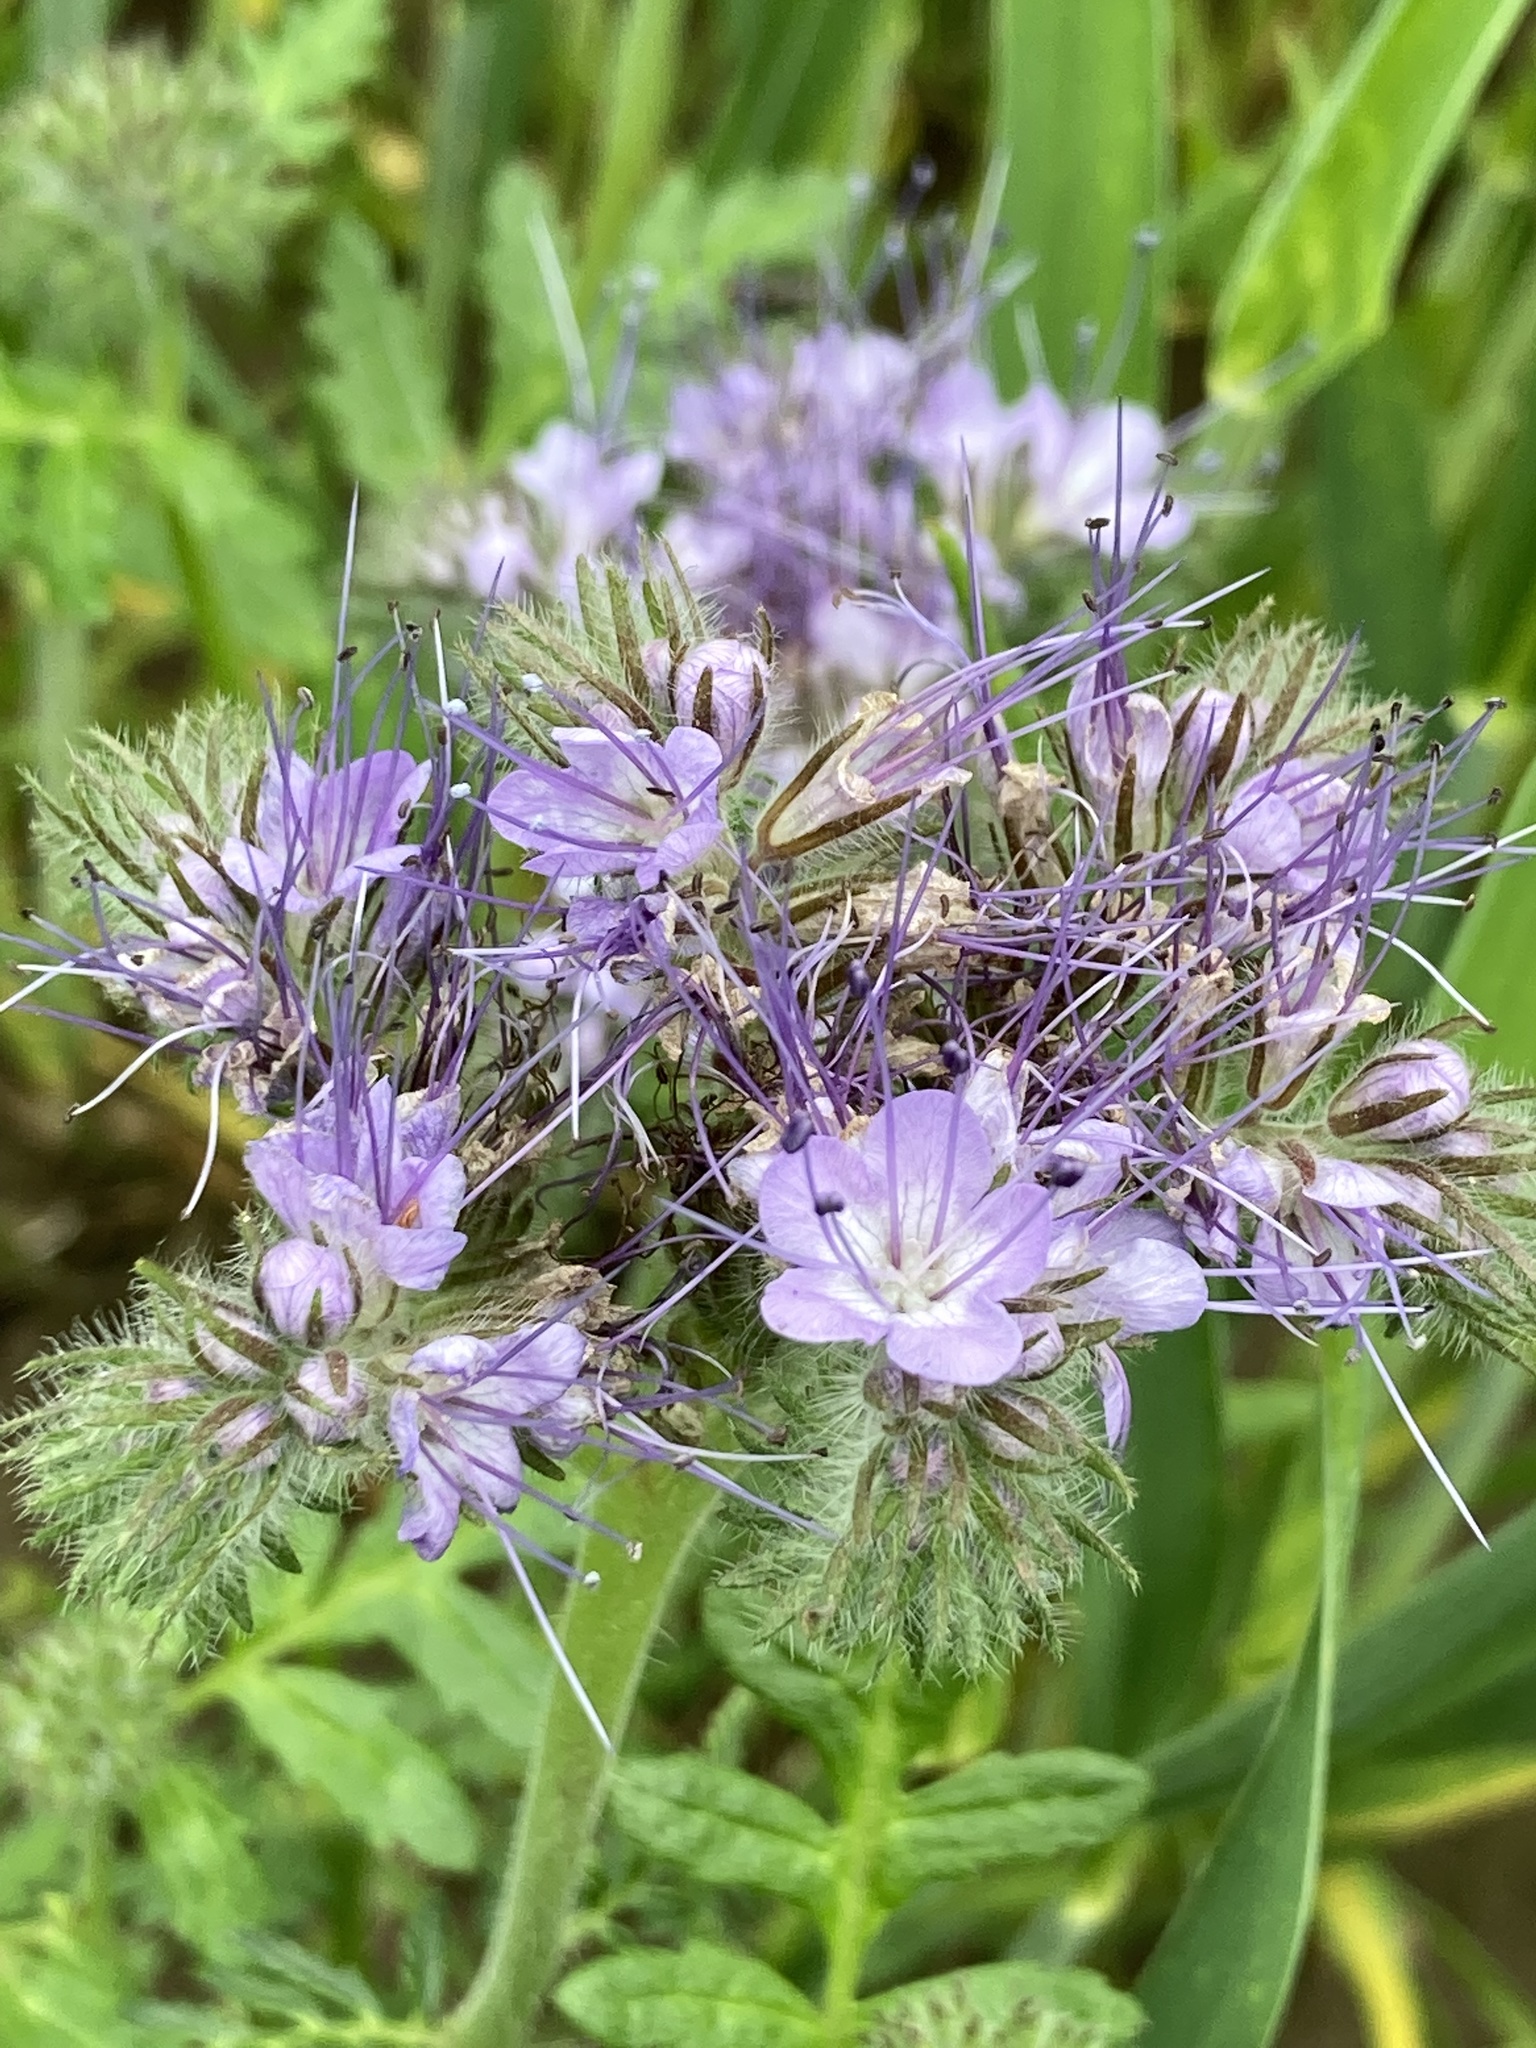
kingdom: Plantae
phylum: Tracheophyta
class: Magnoliopsida
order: Boraginales
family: Hydrophyllaceae
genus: Phacelia
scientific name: Phacelia tanacetifolia
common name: Phacelia
